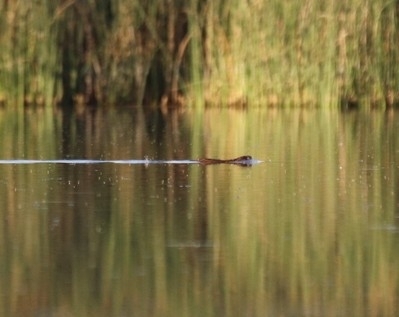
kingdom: Animalia
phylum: Chordata
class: Mammalia
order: Rodentia
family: Cricetidae
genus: Ondatra
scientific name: Ondatra zibethicus
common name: Muskrat
